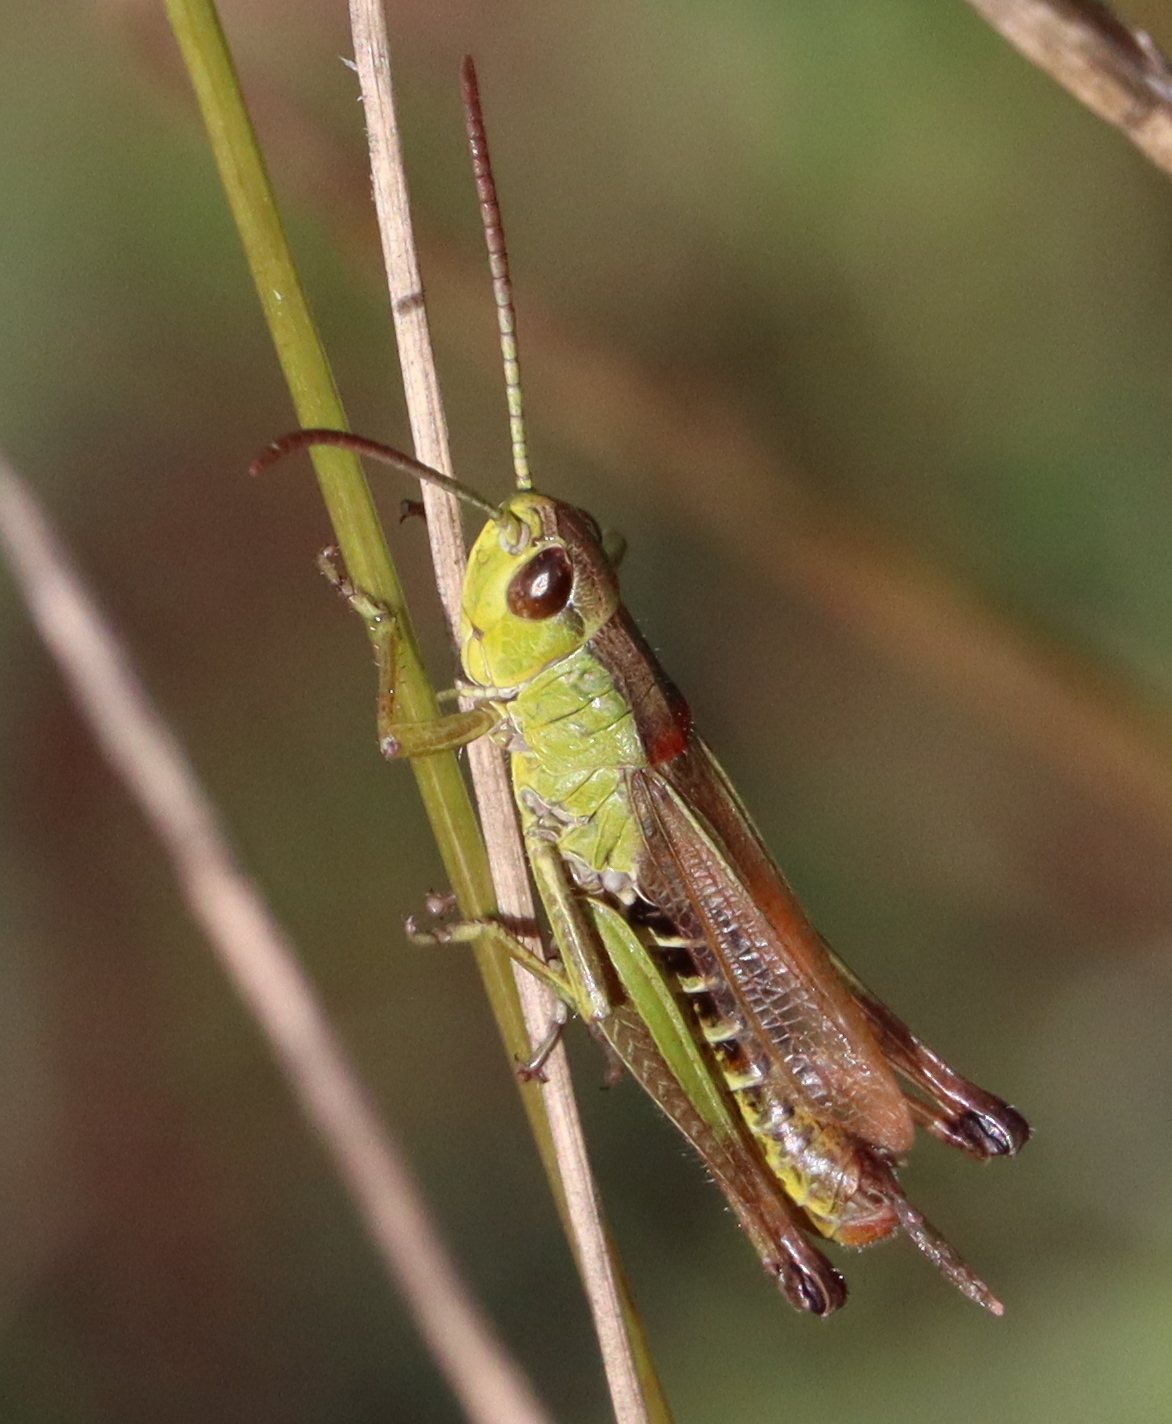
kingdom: Animalia
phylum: Arthropoda
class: Insecta
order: Orthoptera
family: Acrididae
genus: Pseudochorthippus
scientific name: Pseudochorthippus parallelus
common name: Meadow grasshopper
